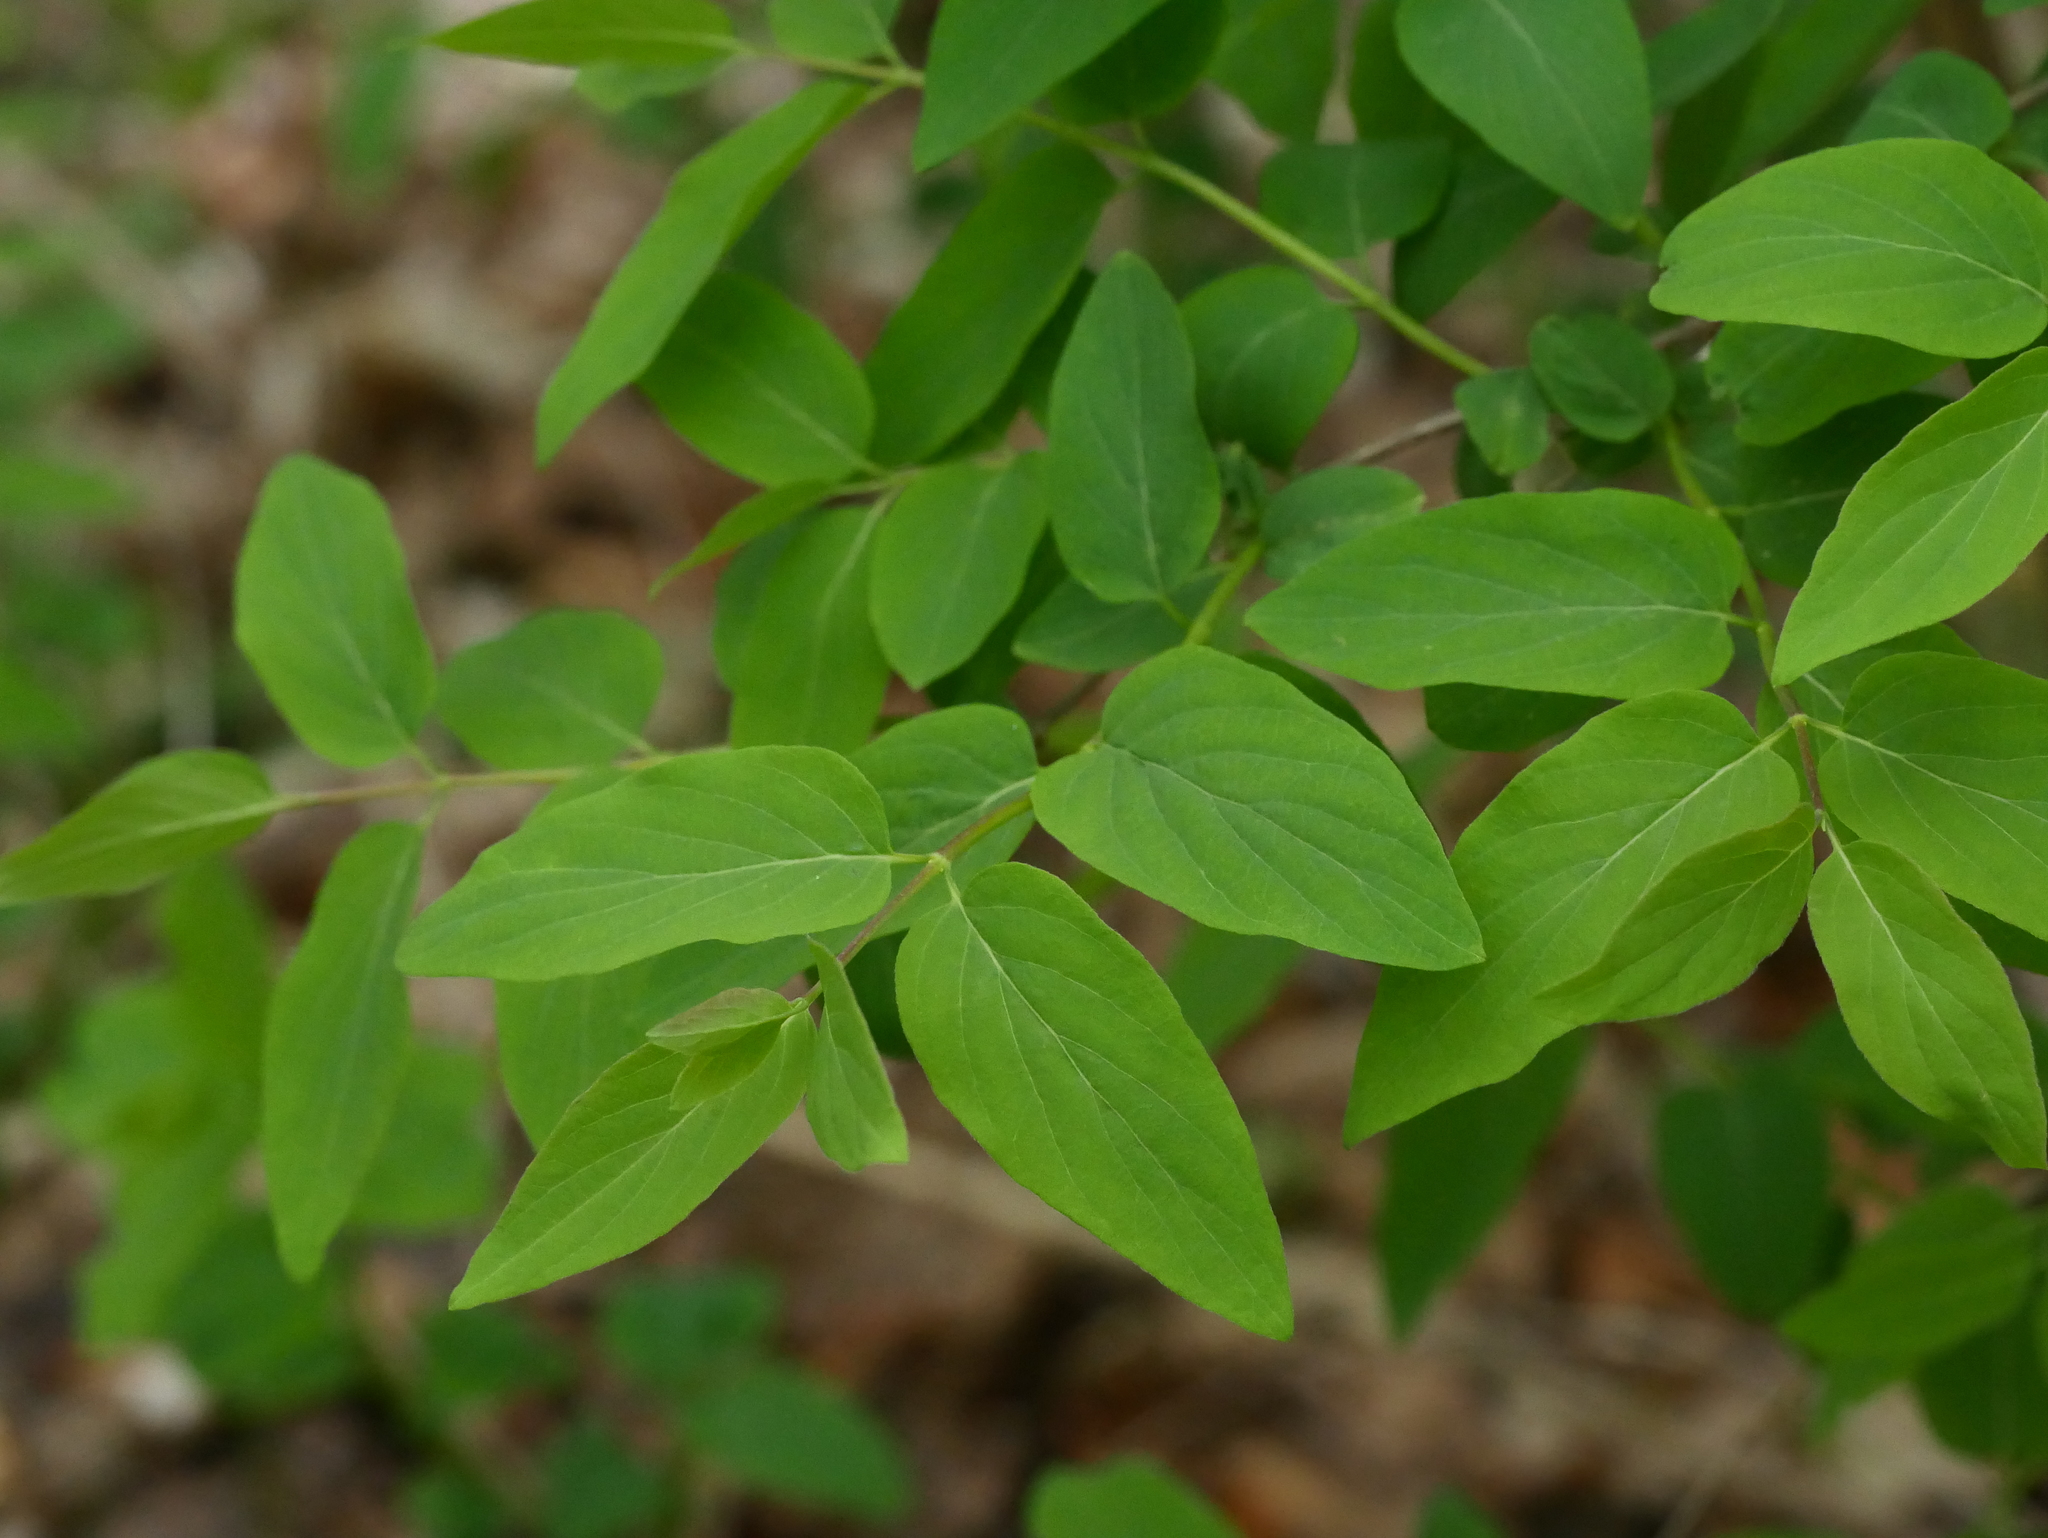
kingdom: Plantae
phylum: Tracheophyta
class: Magnoliopsida
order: Dipsacales
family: Caprifoliaceae
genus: Lonicera
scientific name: Lonicera tatarica
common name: Tatarian honeysuckle
